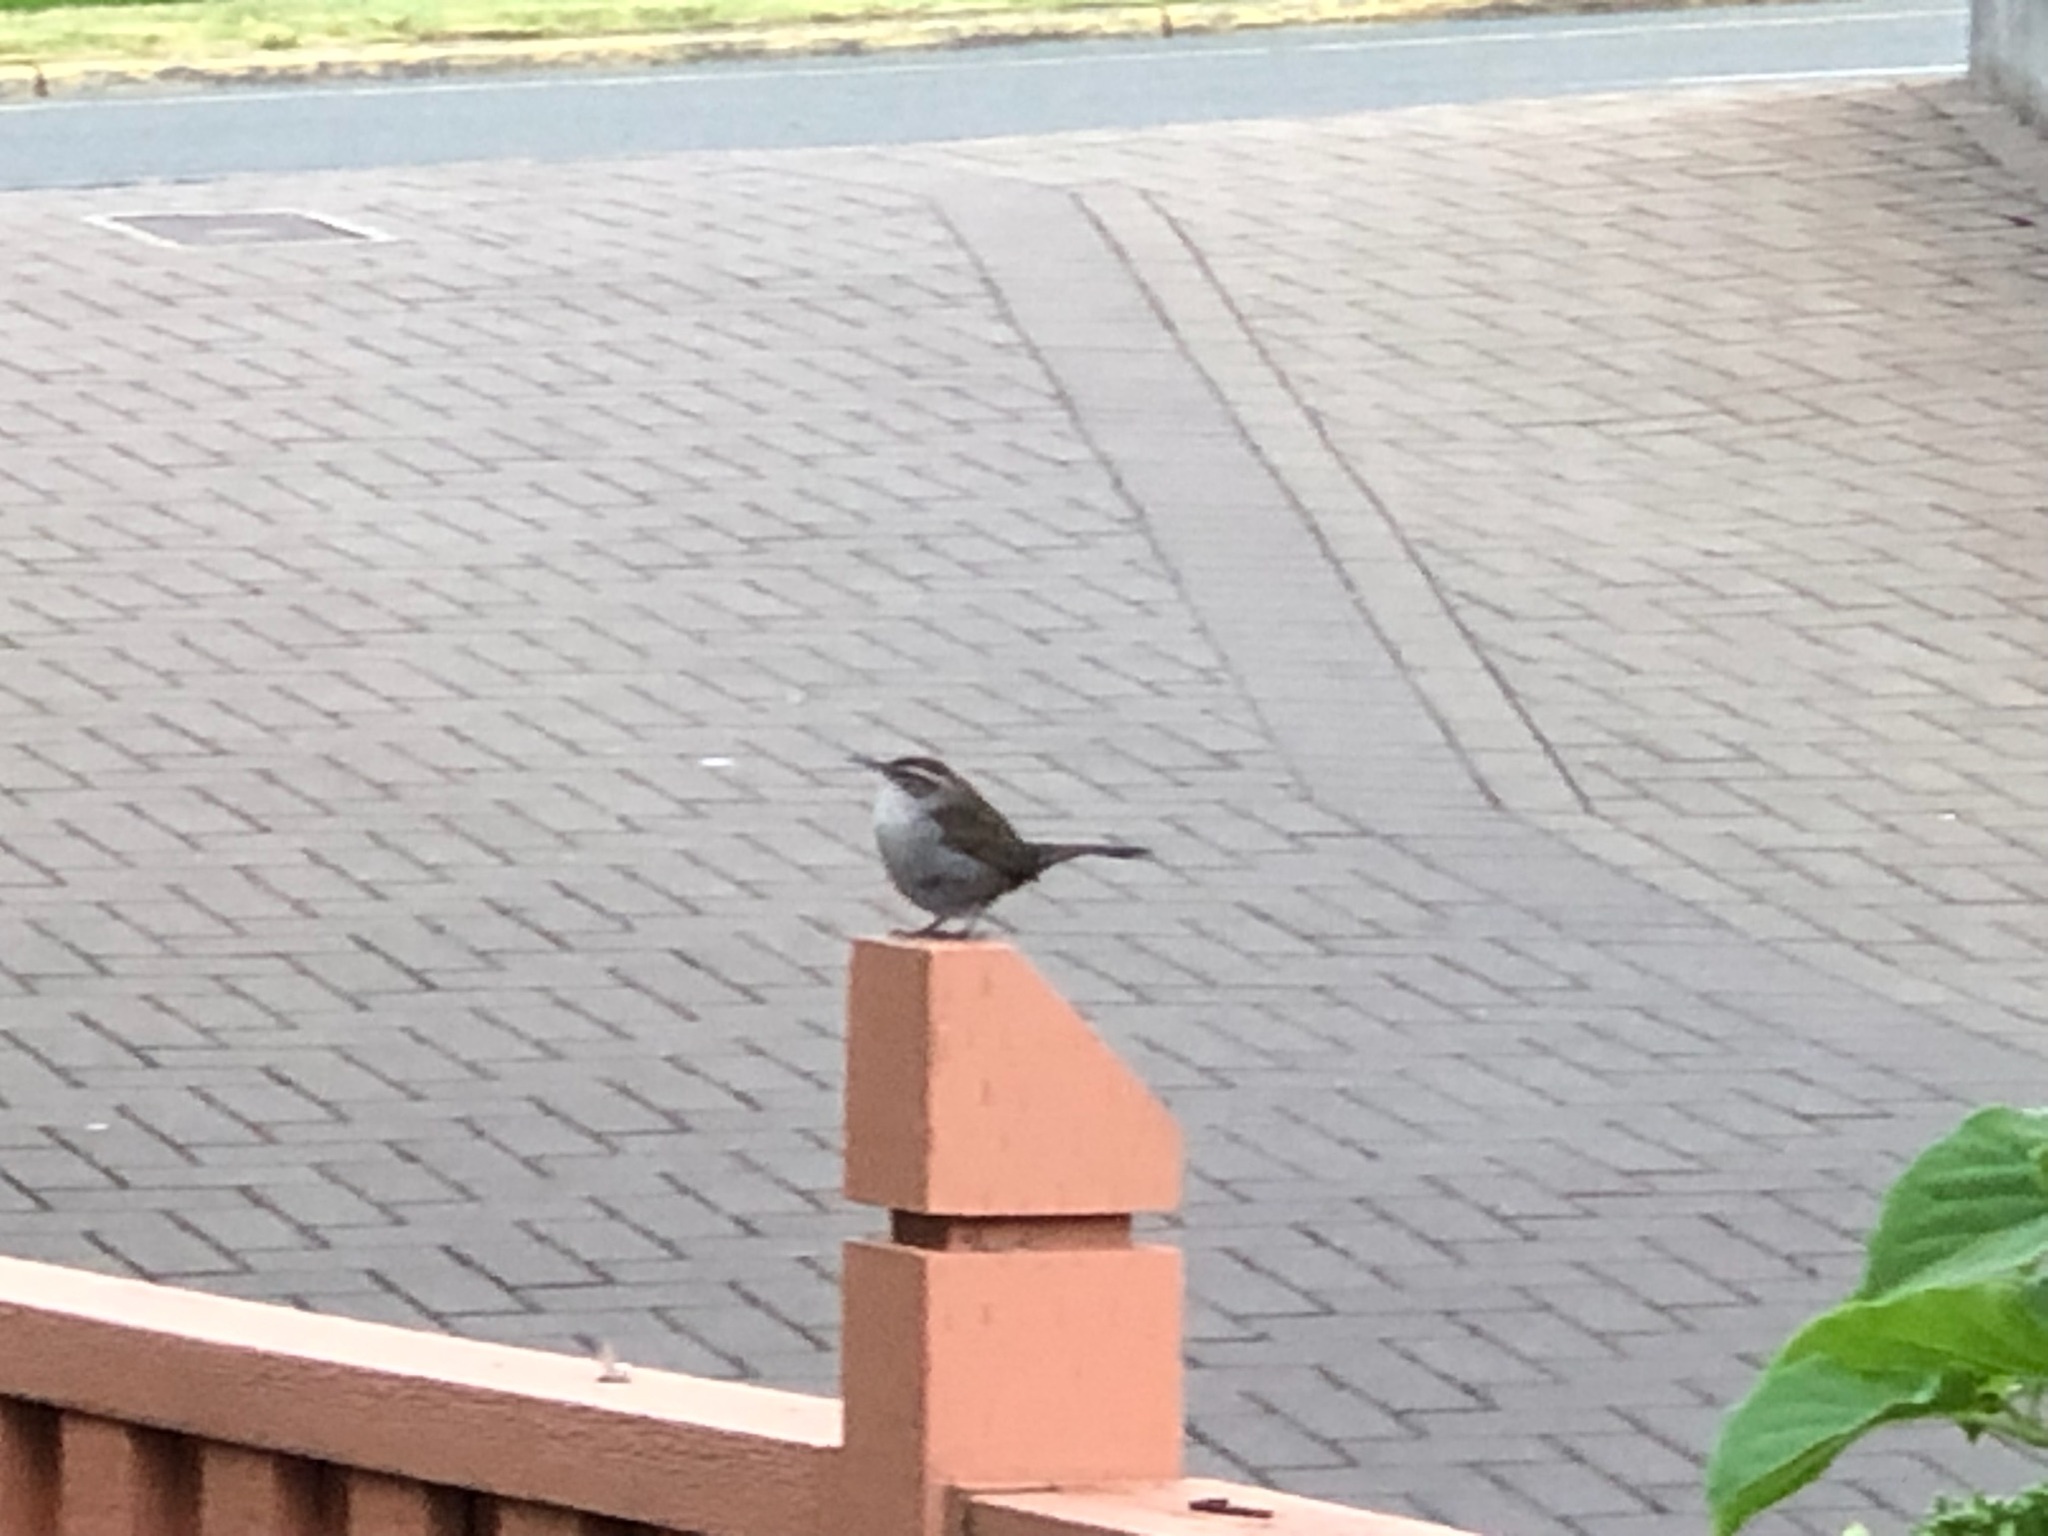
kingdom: Animalia
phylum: Chordata
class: Aves
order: Passeriformes
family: Troglodytidae
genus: Thryomanes
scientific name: Thryomanes bewickii
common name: Bewick's wren
